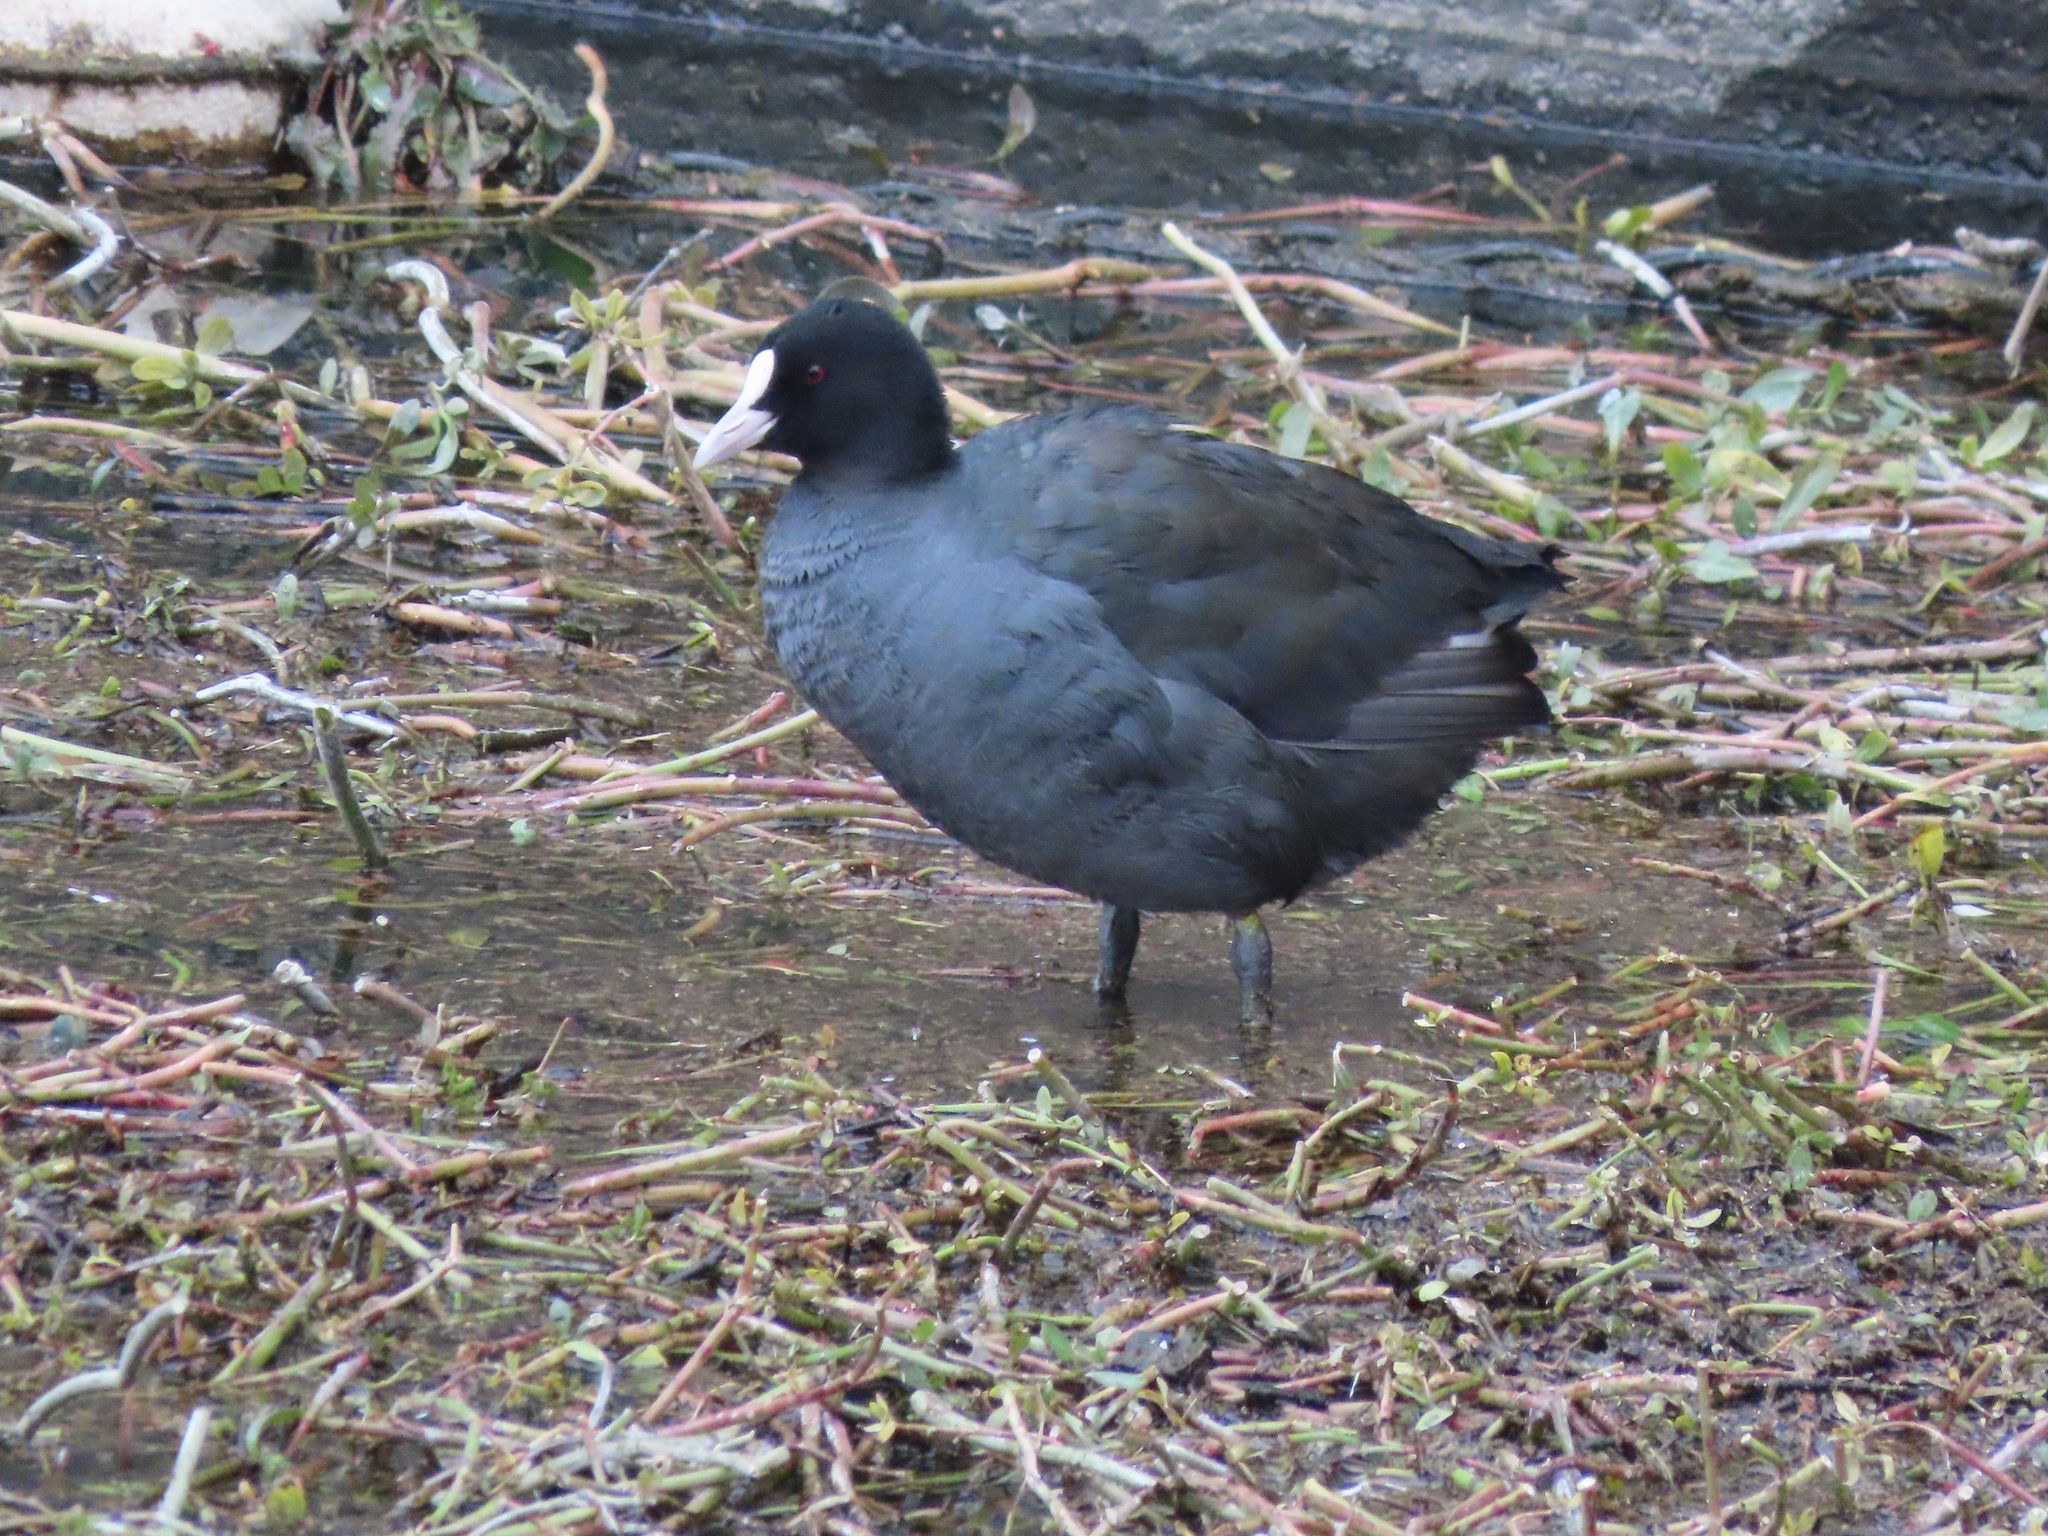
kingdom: Animalia
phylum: Chordata
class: Aves
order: Gruiformes
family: Rallidae
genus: Fulica
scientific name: Fulica atra
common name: Eurasian coot
